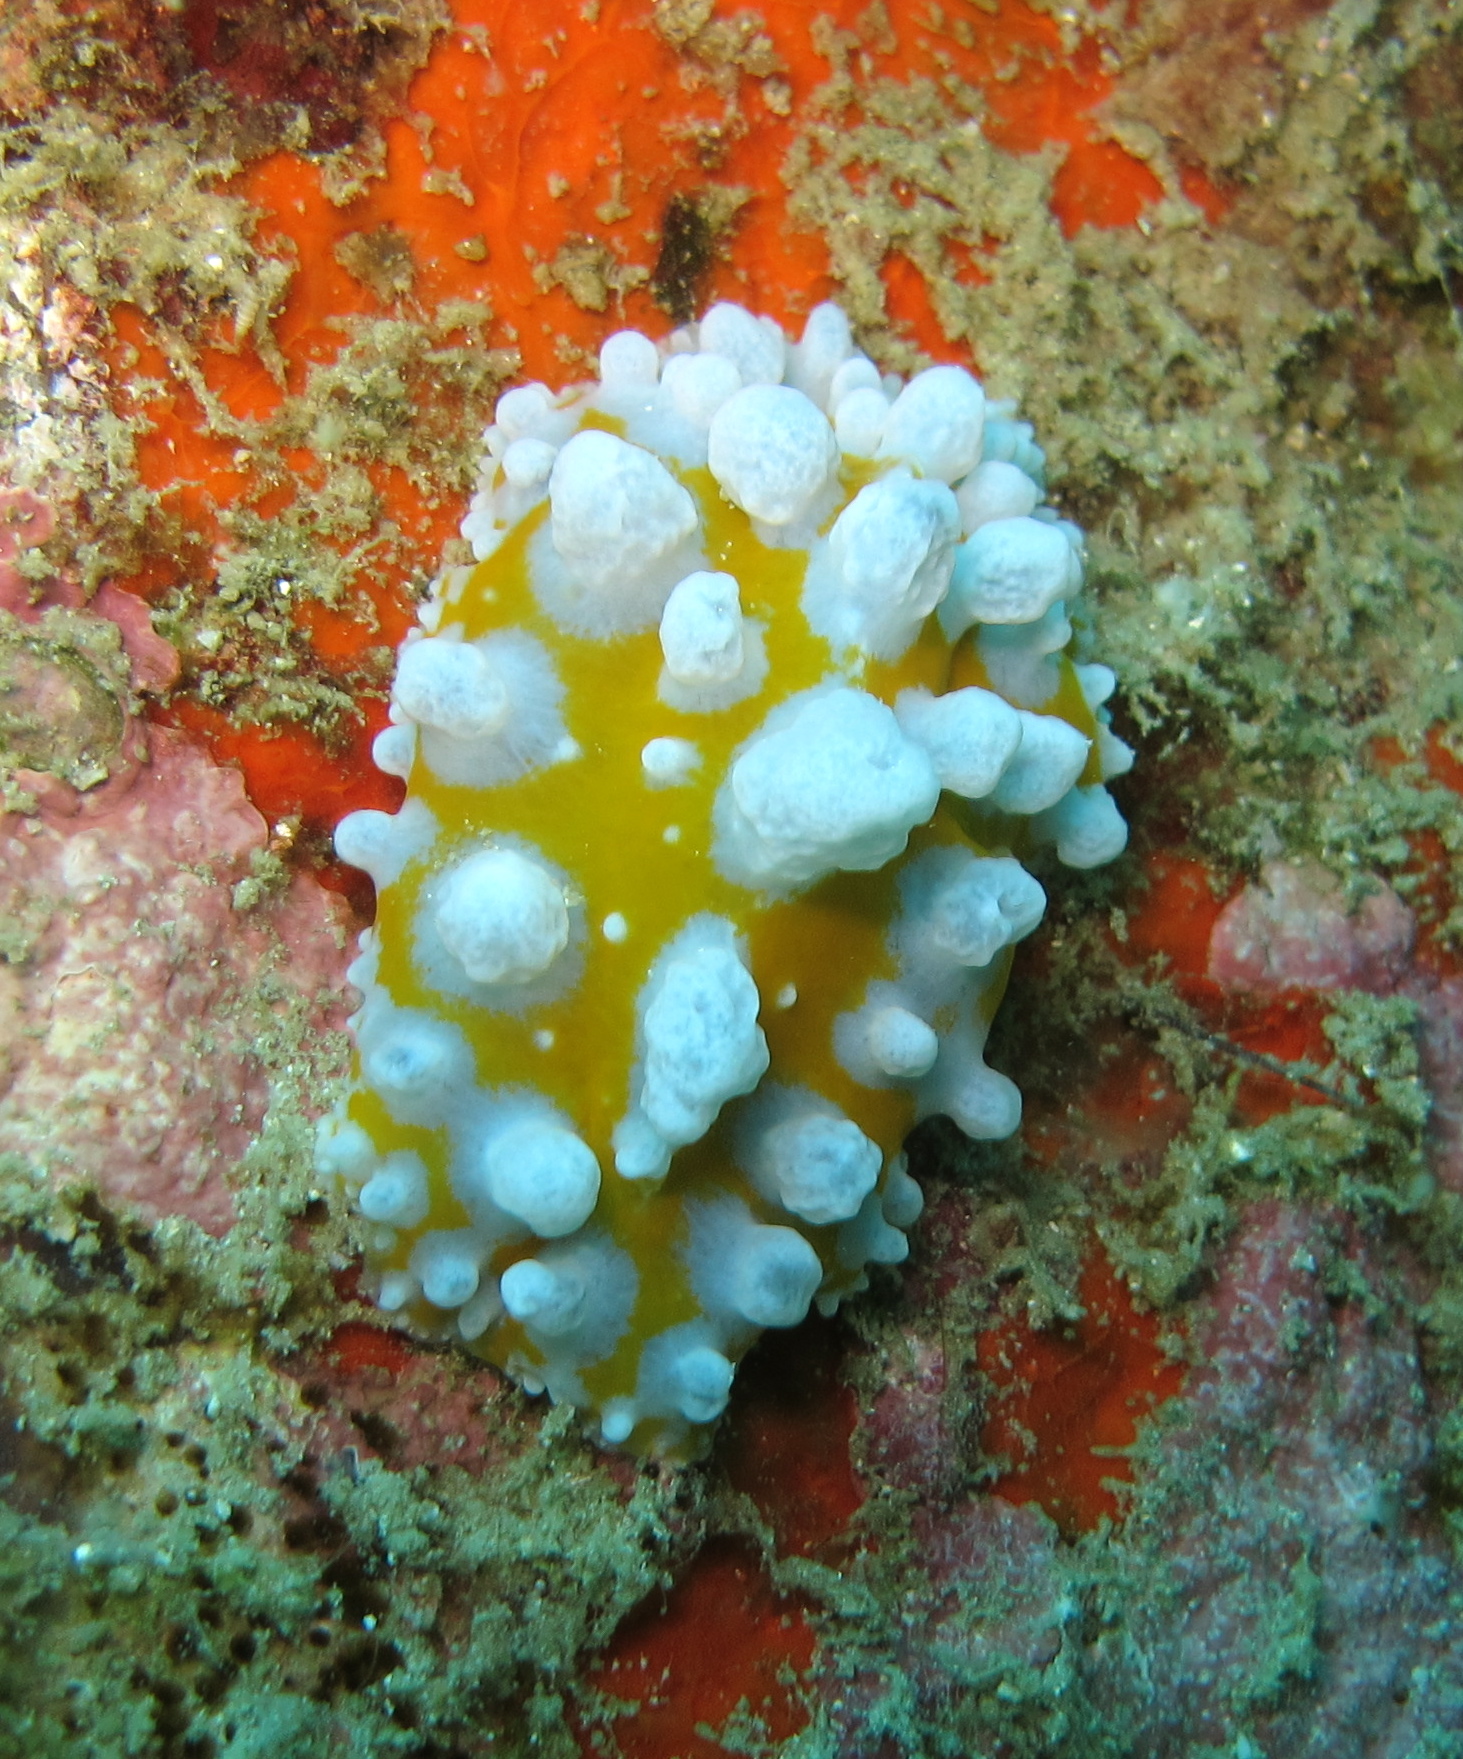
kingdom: Animalia
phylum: Mollusca
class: Gastropoda
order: Nudibranchia
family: Phyllidiidae
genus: Phyllidia
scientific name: Phyllidia ocellata
